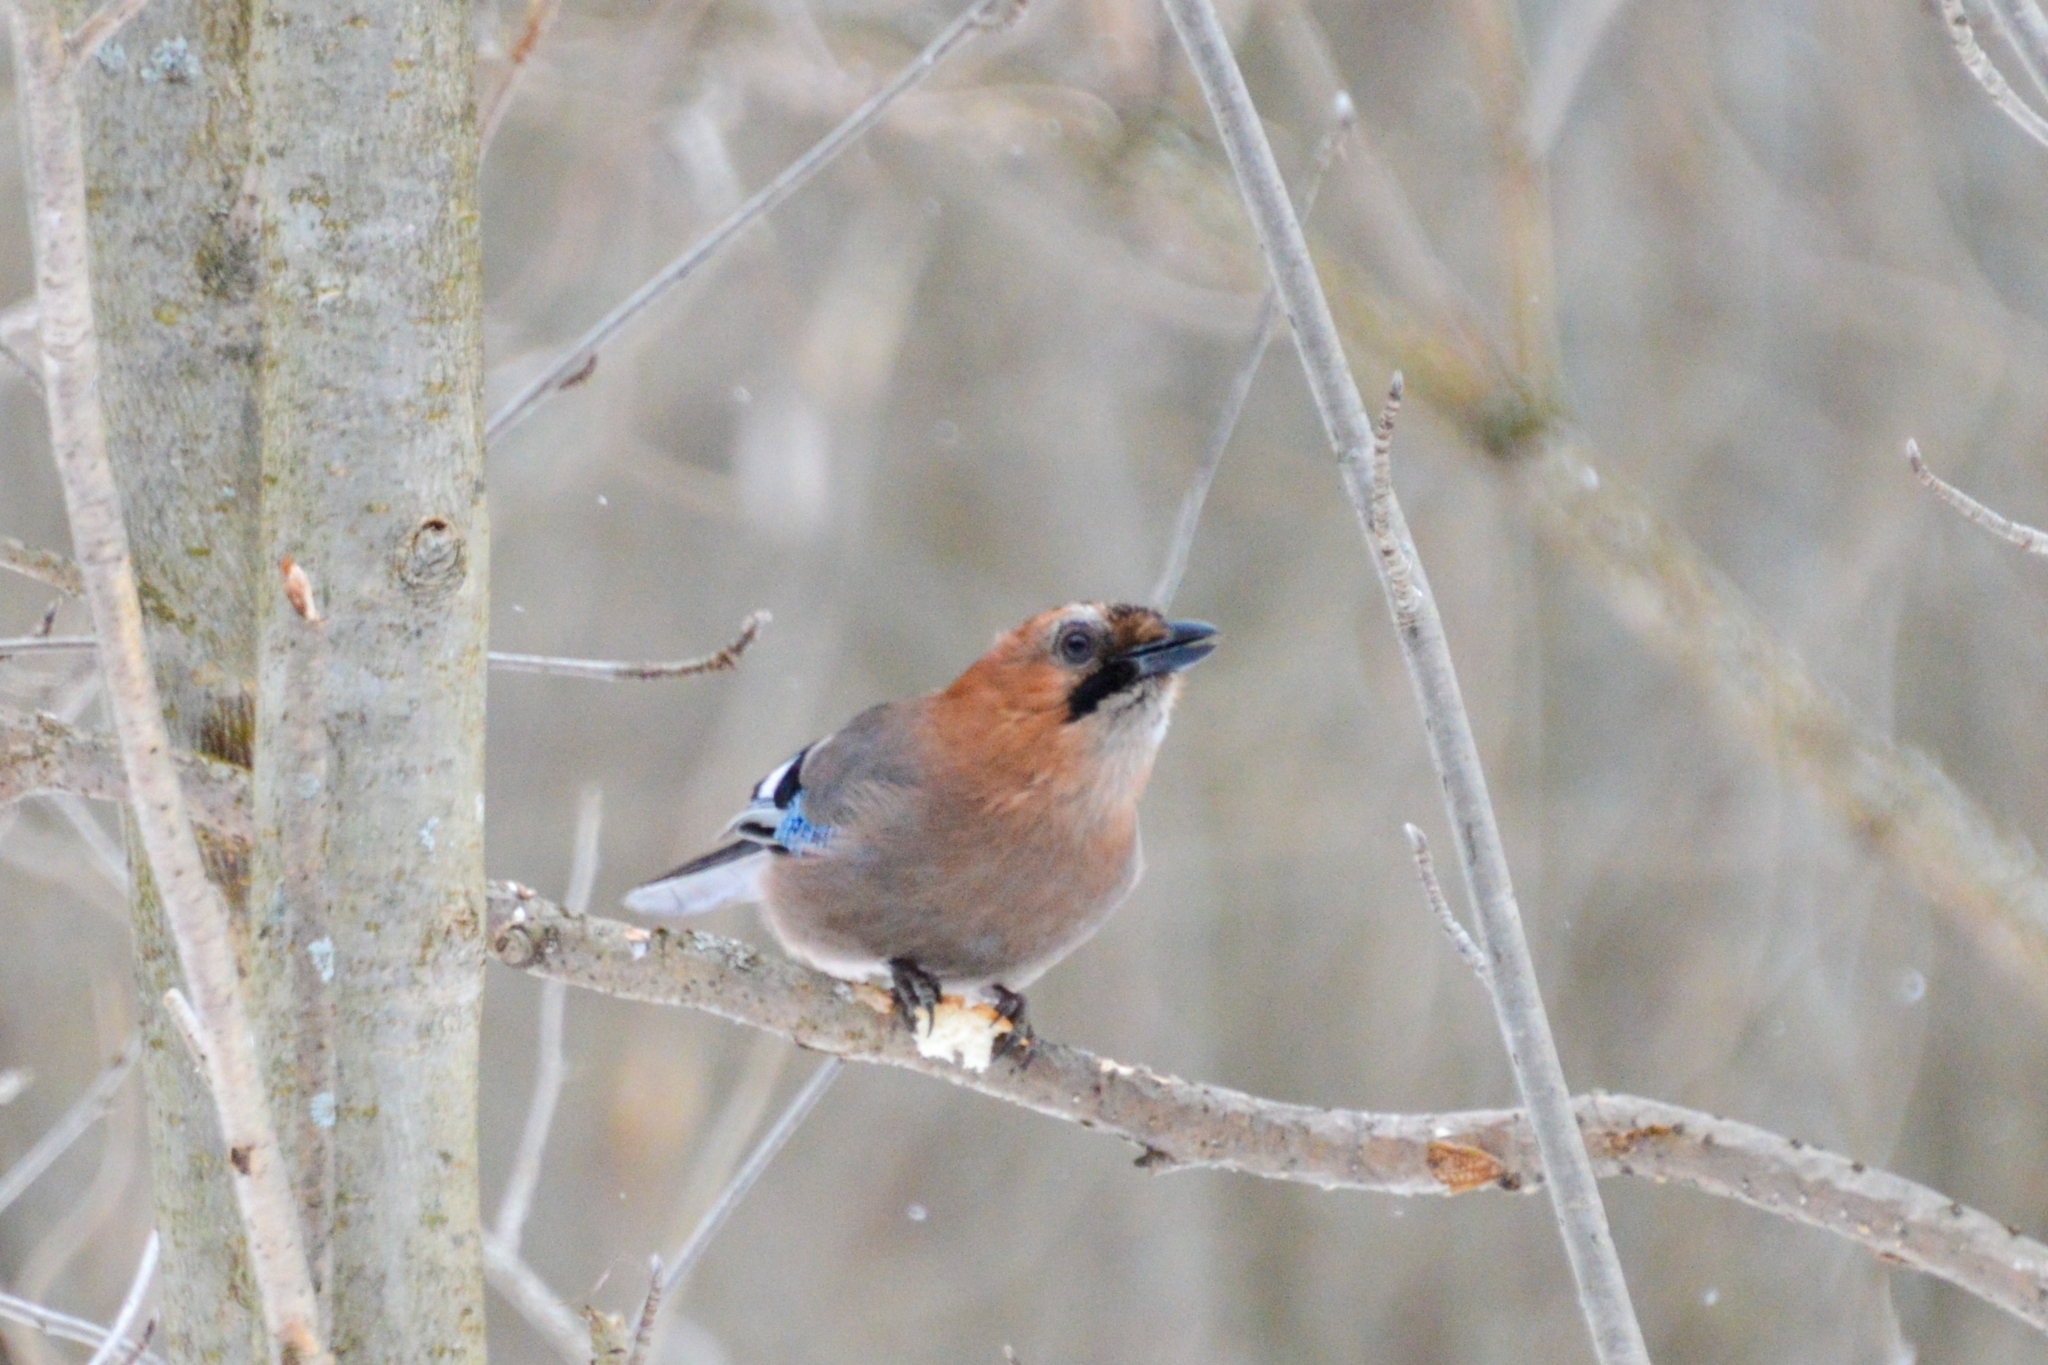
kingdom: Animalia
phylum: Chordata
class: Aves
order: Passeriformes
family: Corvidae
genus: Garrulus
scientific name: Garrulus glandarius
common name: Eurasian jay
